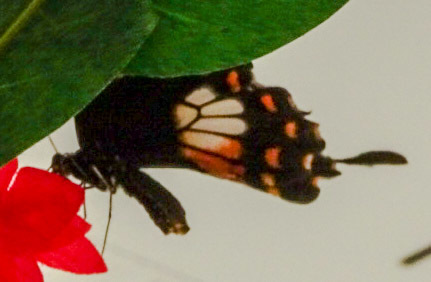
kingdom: Animalia
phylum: Arthropoda
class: Insecta
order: Lepidoptera
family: Papilionidae
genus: Papilio
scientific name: Papilio polytes
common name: Common mormon
